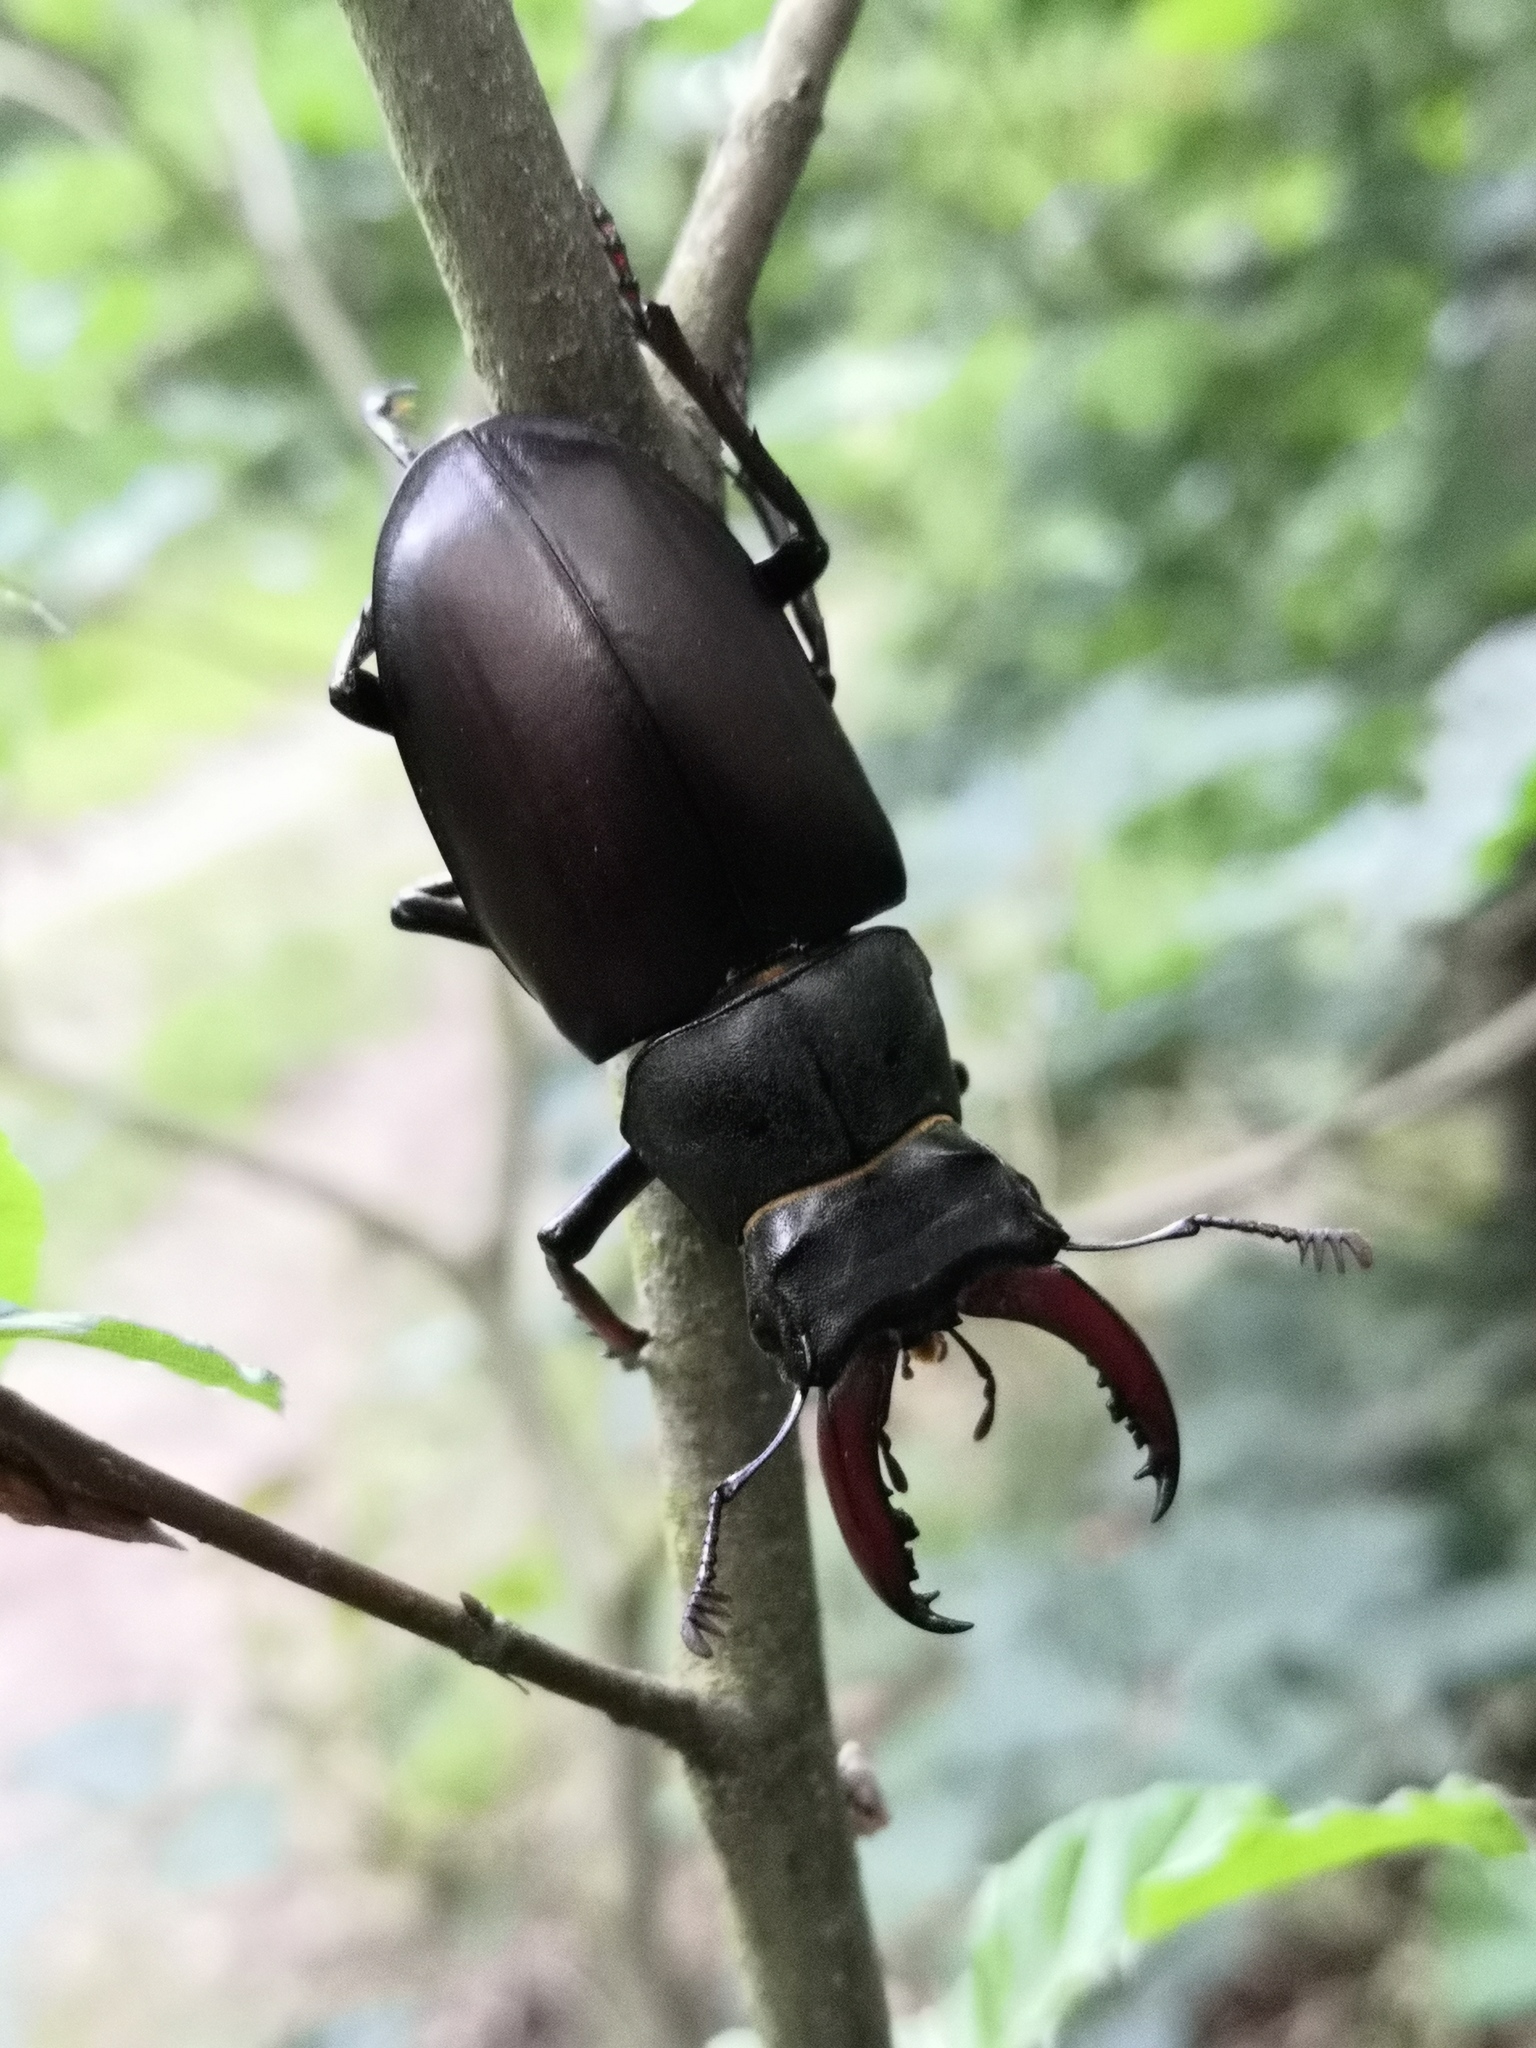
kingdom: Animalia
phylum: Arthropoda
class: Insecta
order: Coleoptera
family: Lucanidae
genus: Lucanus
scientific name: Lucanus cervus
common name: Stag beetle
